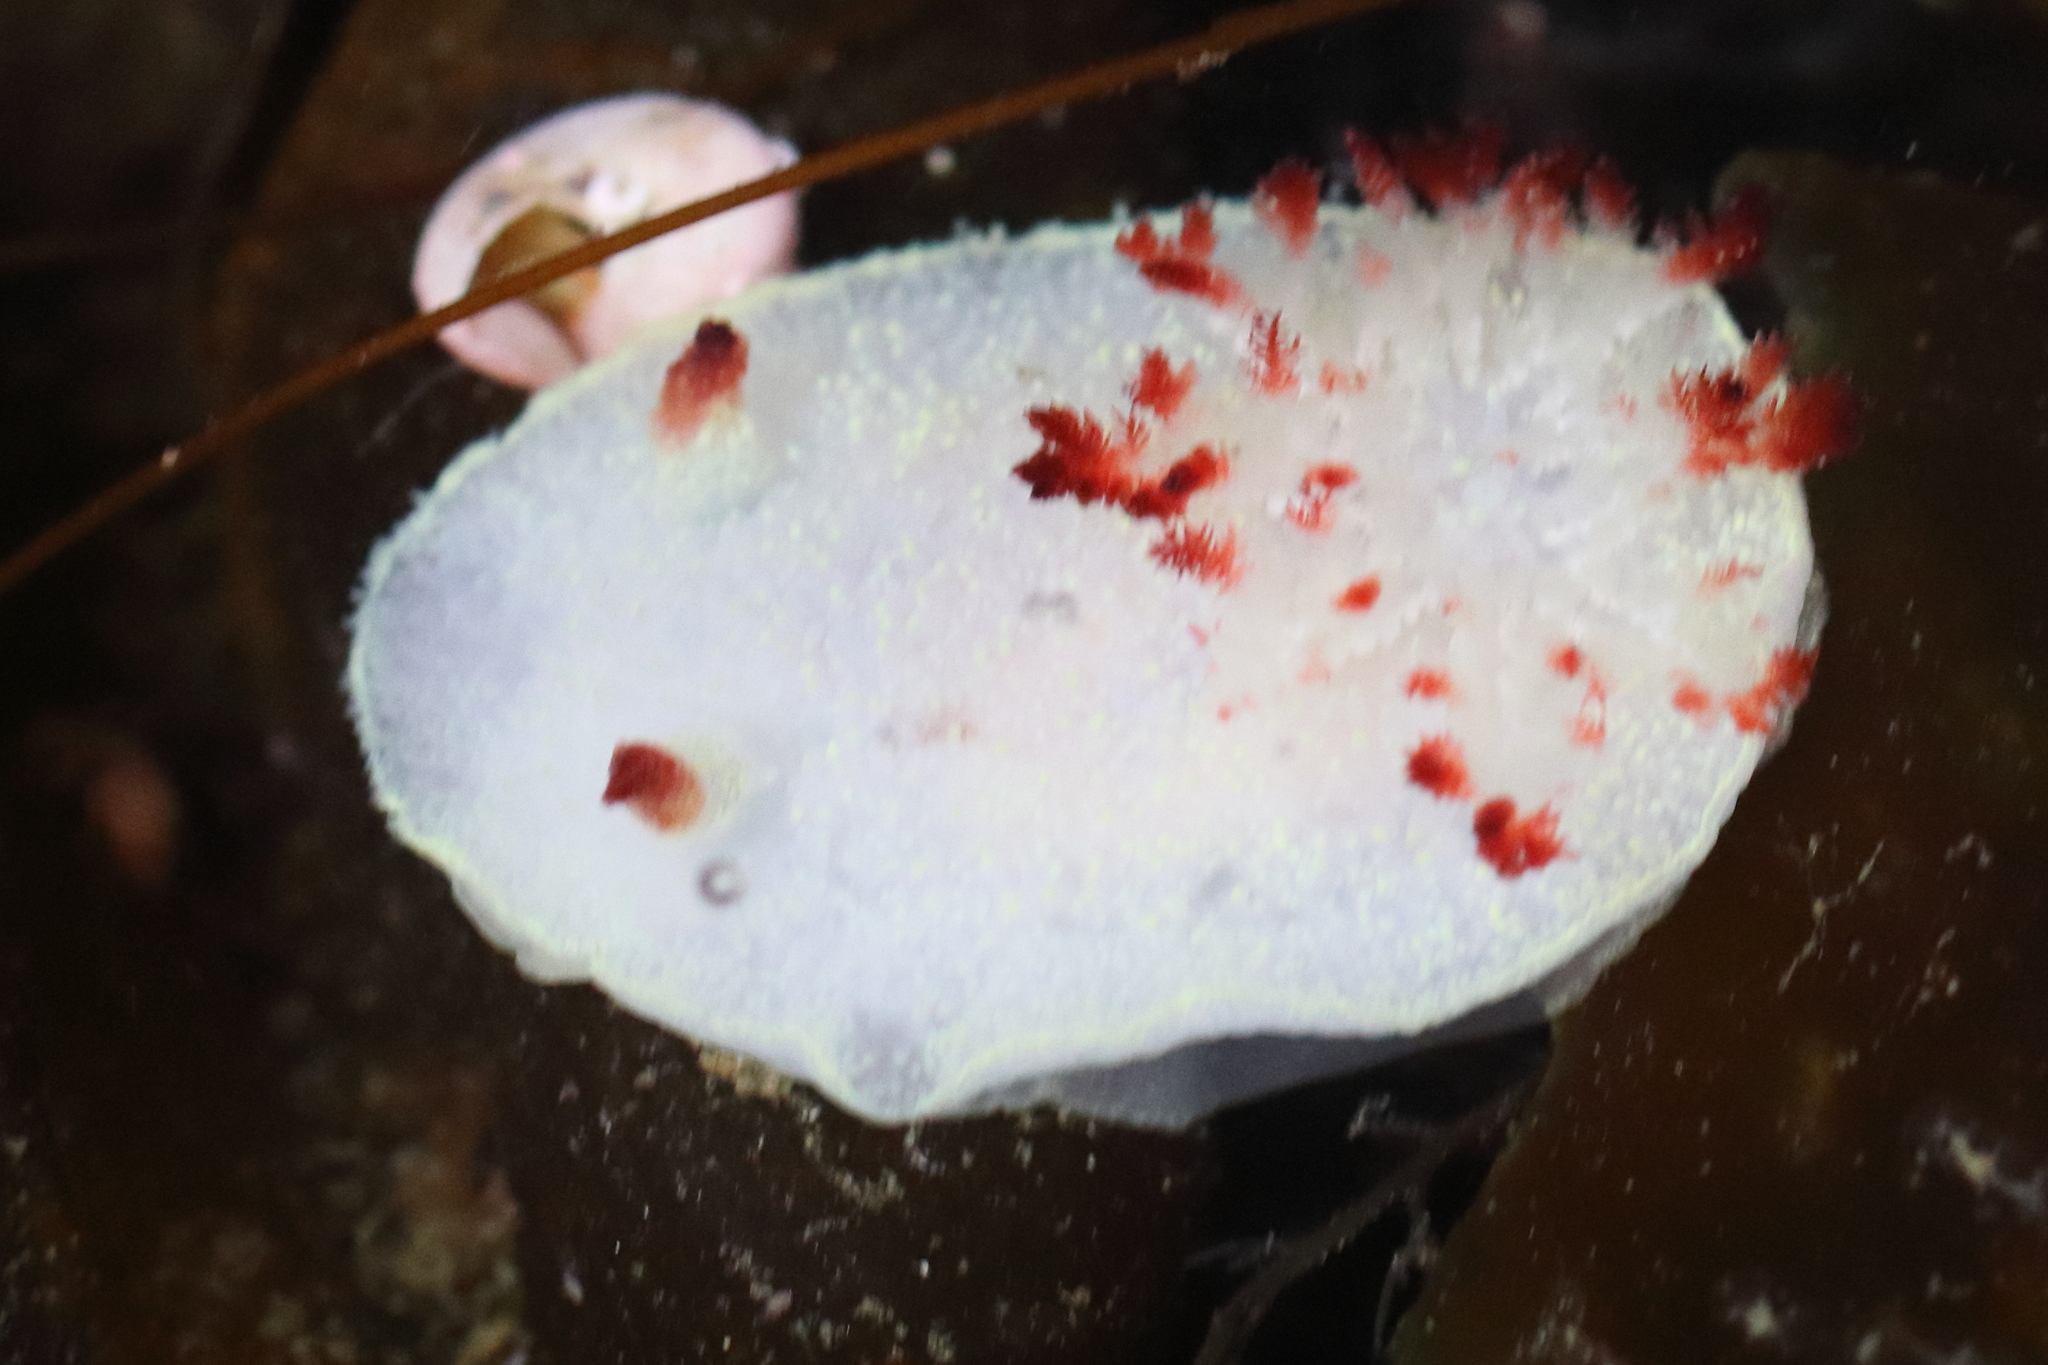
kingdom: Animalia
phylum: Mollusca
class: Gastropoda
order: Nudibranchia
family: Onchidorididae
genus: Acanthodoris
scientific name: Acanthodoris nanaimoensis
